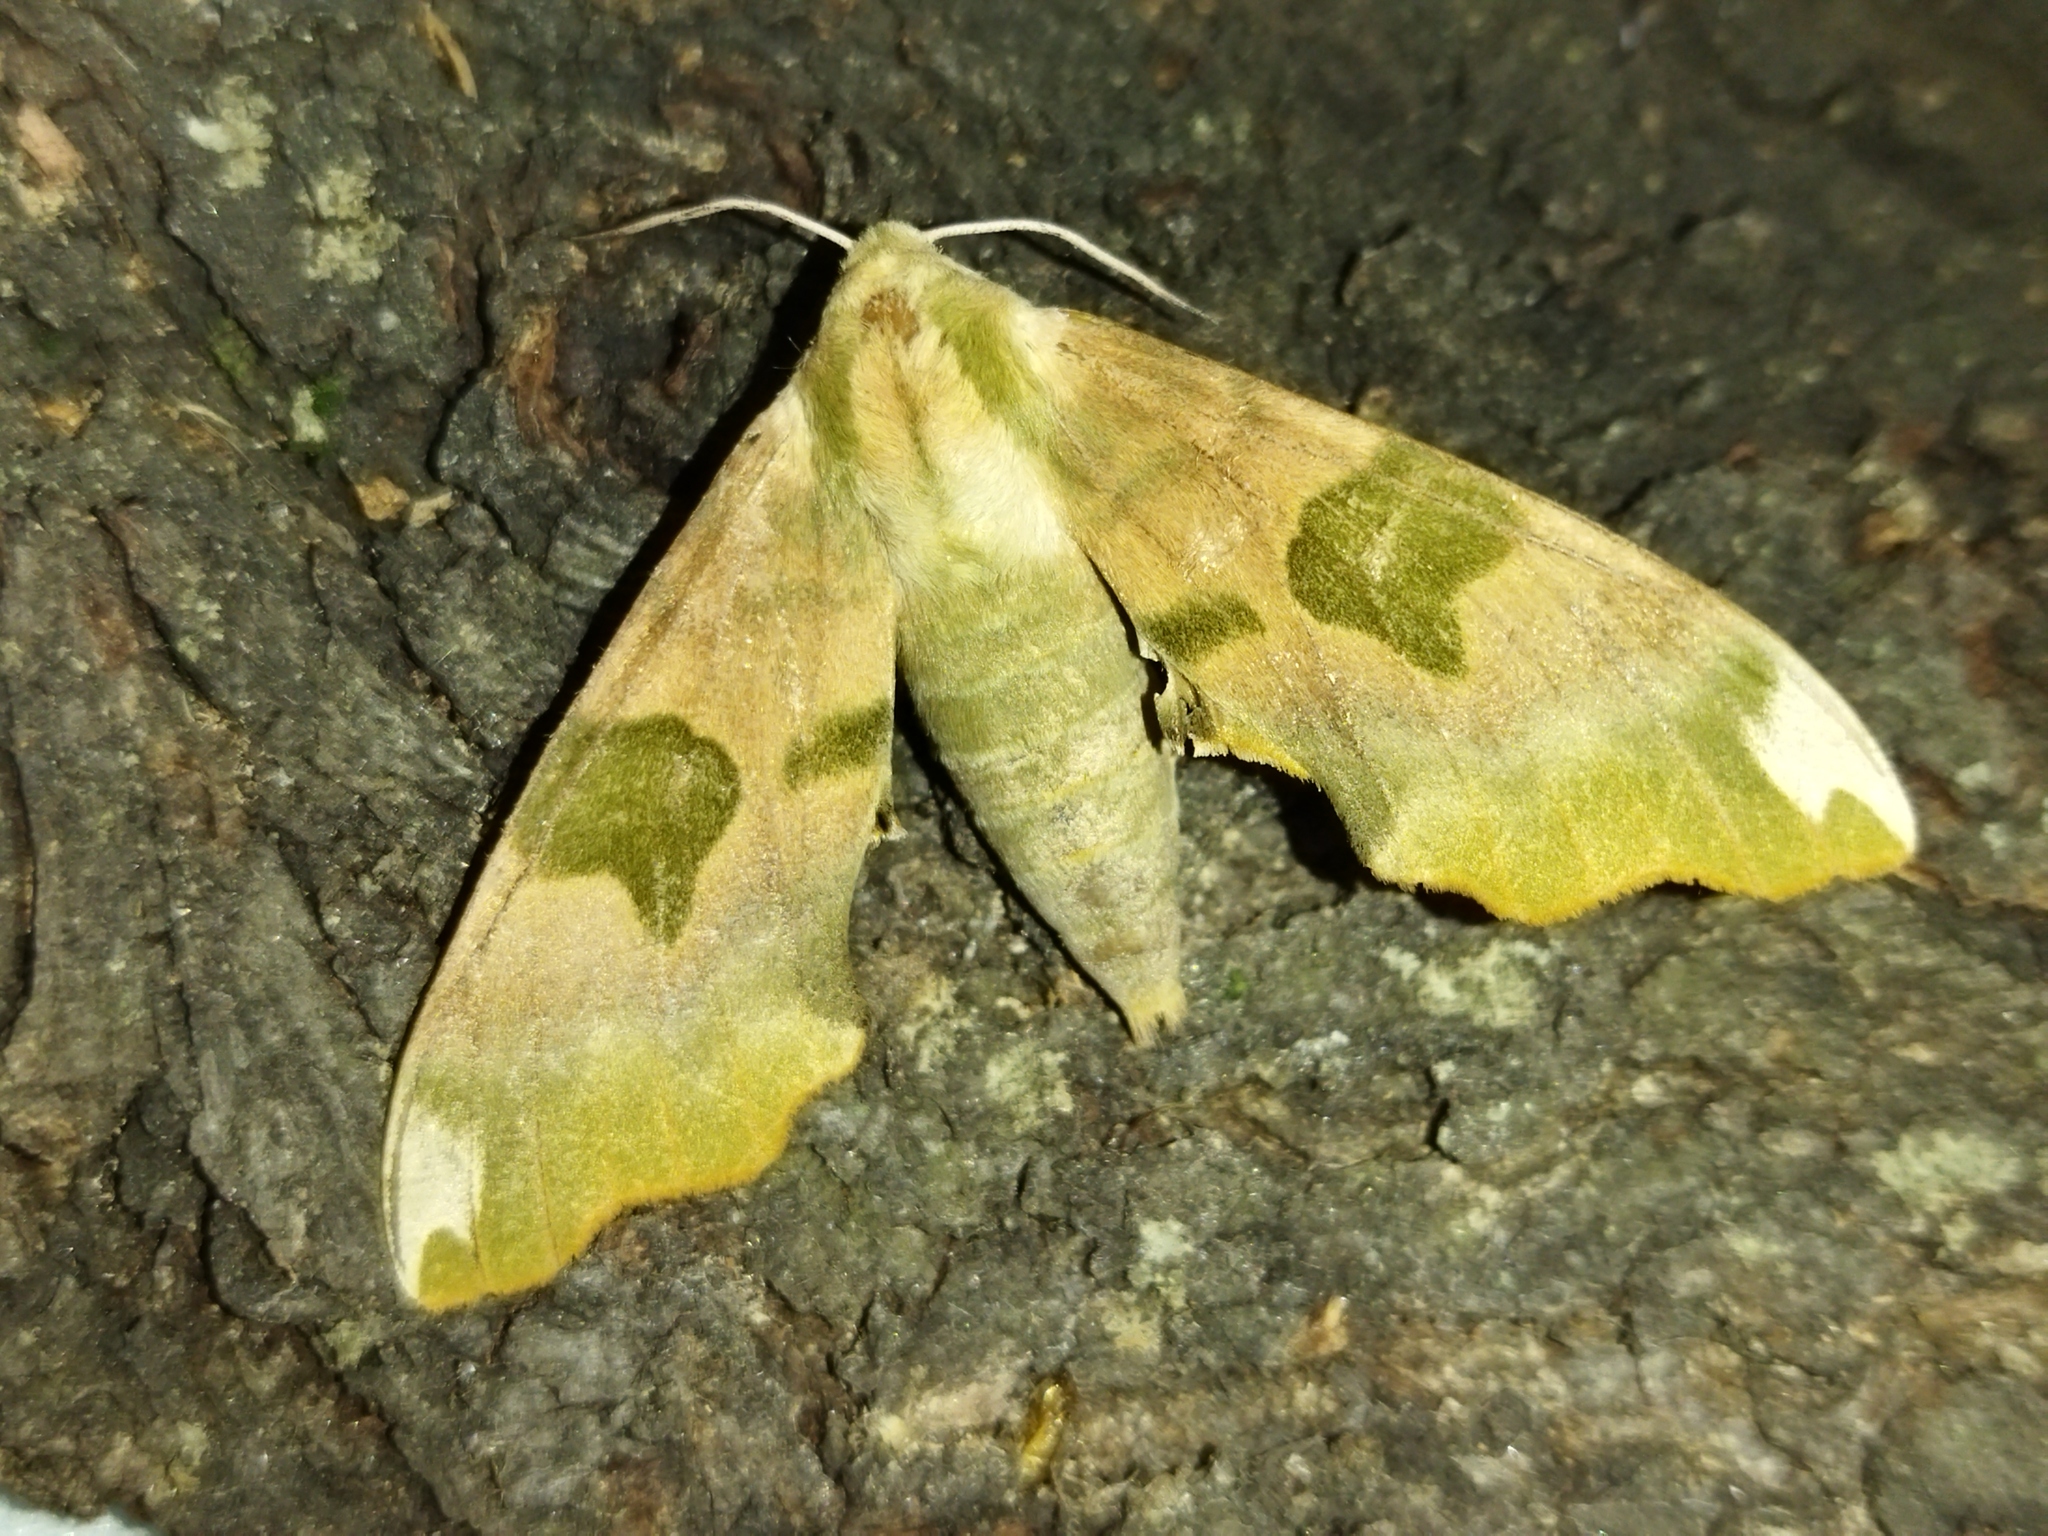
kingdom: Animalia
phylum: Arthropoda
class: Insecta
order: Lepidoptera
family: Sphingidae
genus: Mimas
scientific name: Mimas tiliae
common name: Lime hawk-moth
